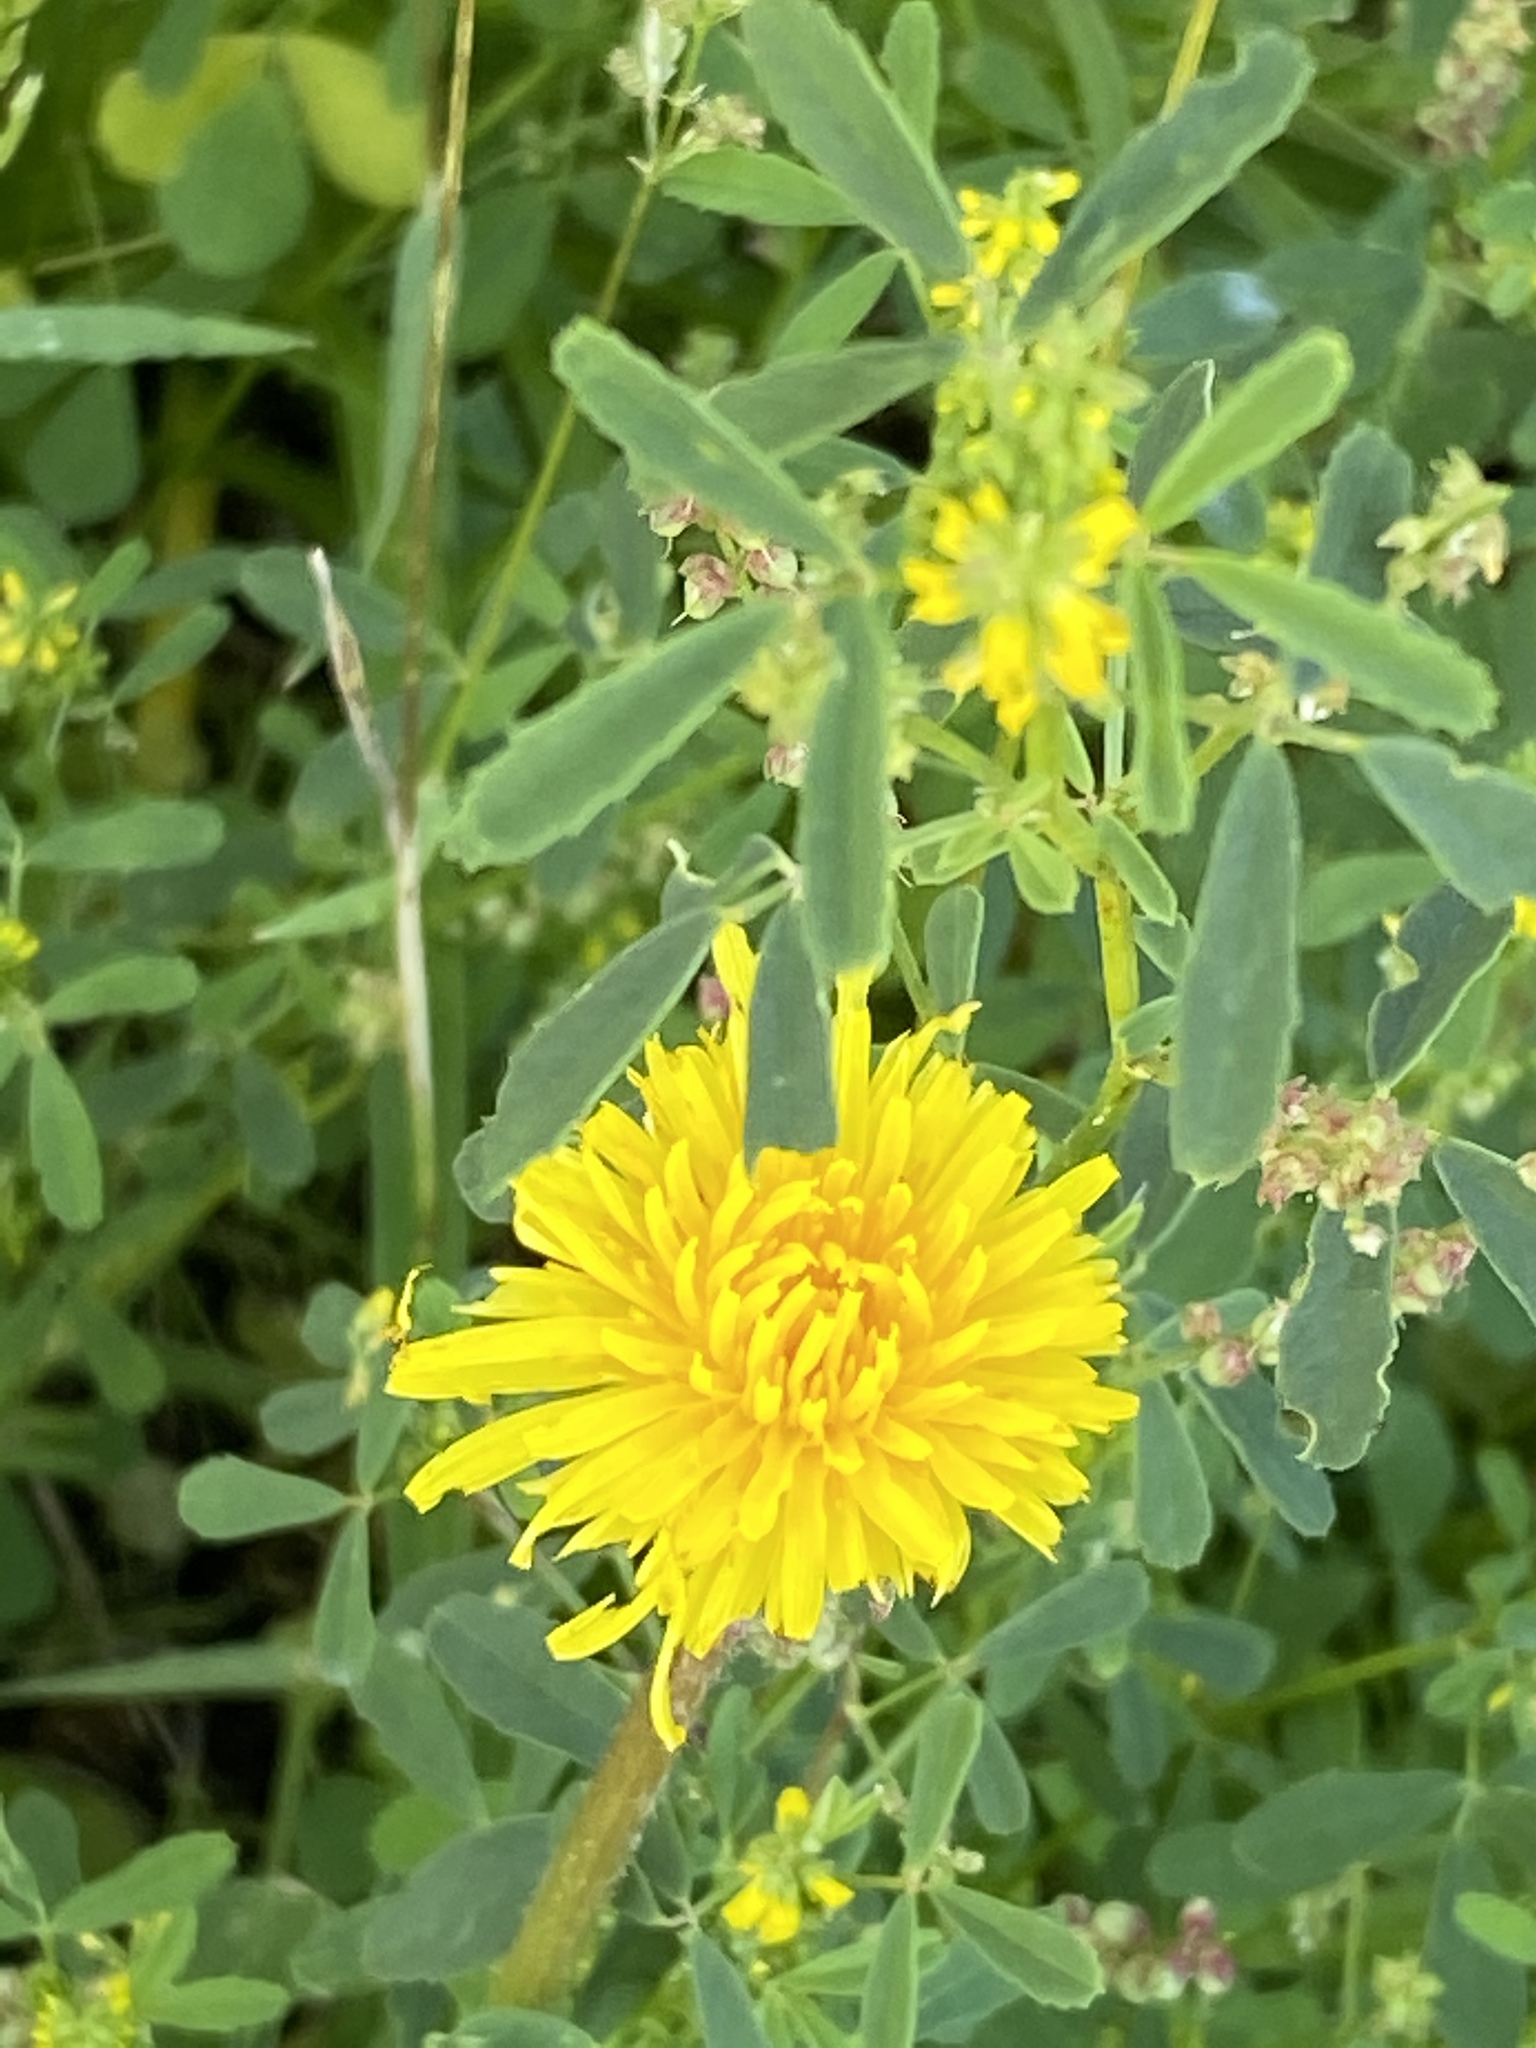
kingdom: Plantae
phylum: Tracheophyta
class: Magnoliopsida
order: Asterales
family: Asteraceae
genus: Taraxacum
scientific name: Taraxacum officinale
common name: Common dandelion
